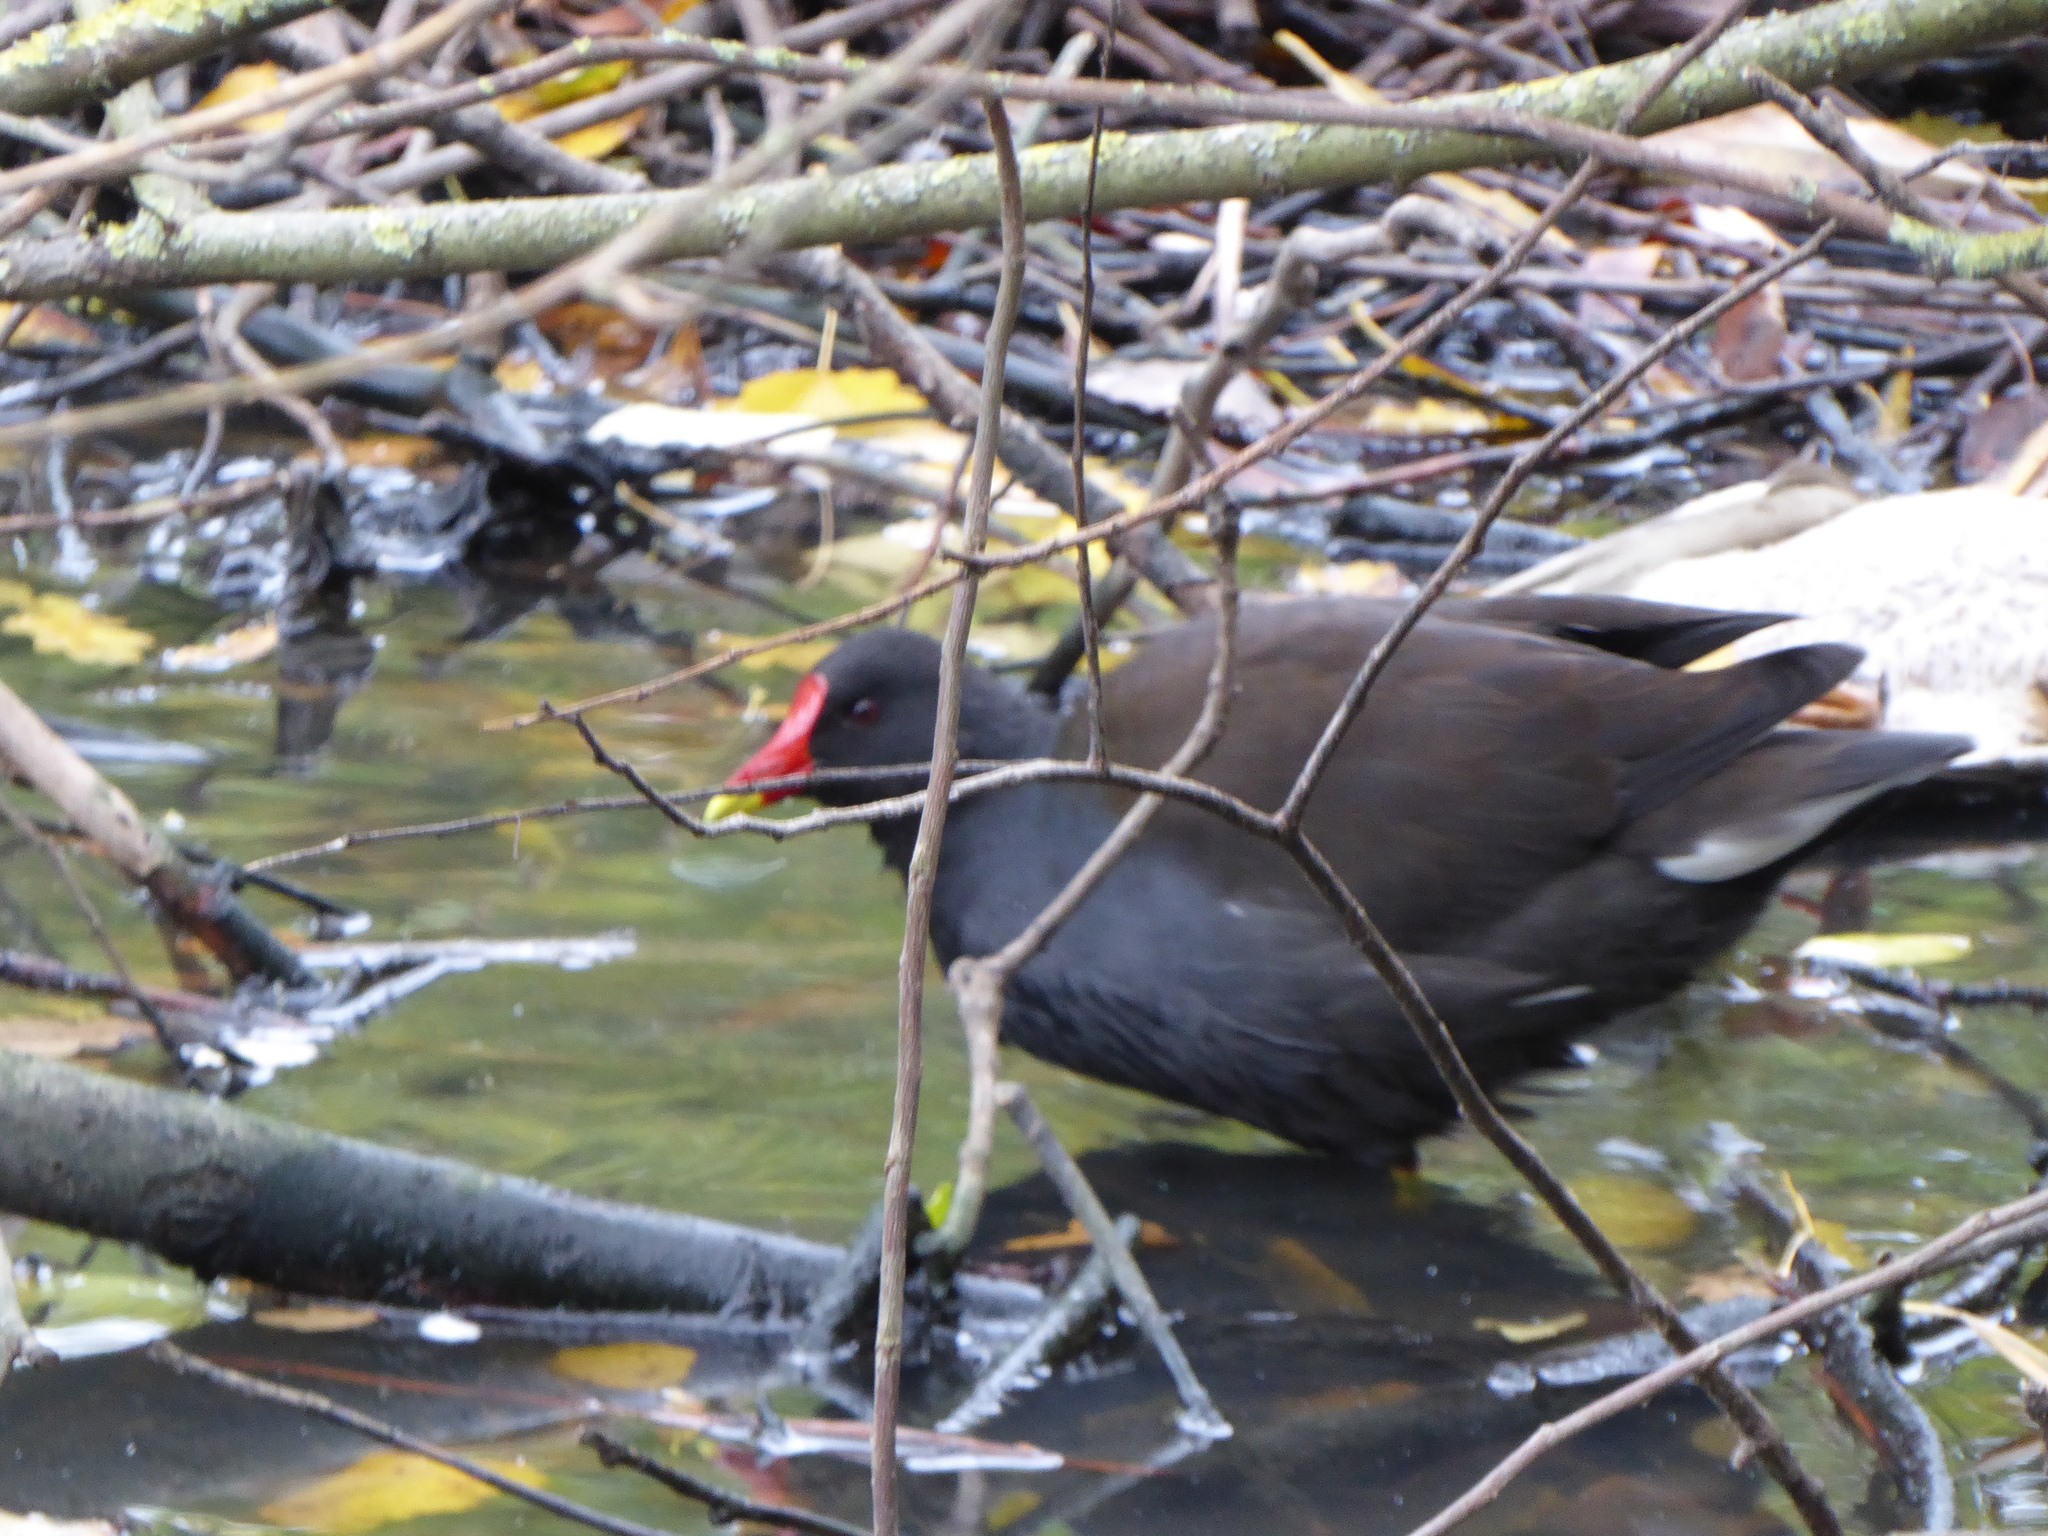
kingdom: Animalia
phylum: Chordata
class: Aves
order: Gruiformes
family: Rallidae
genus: Gallinula
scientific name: Gallinula chloropus
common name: Common moorhen
